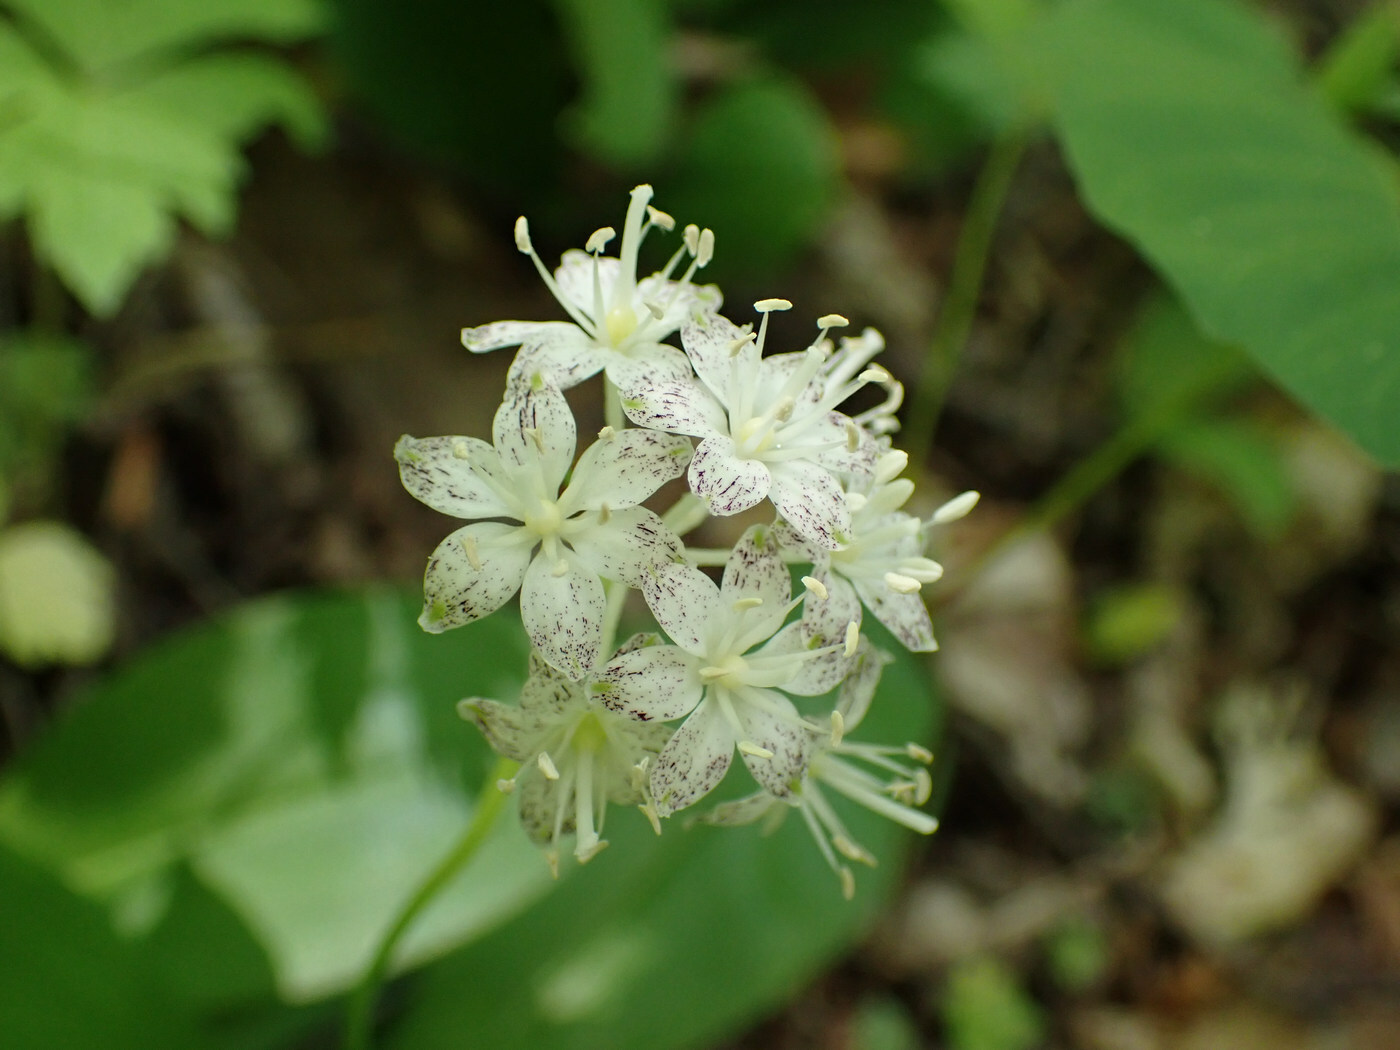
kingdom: Plantae
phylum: Tracheophyta
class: Liliopsida
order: Liliales
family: Liliaceae
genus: Clintonia
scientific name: Clintonia umbellulata
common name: Speckle wood-lily
